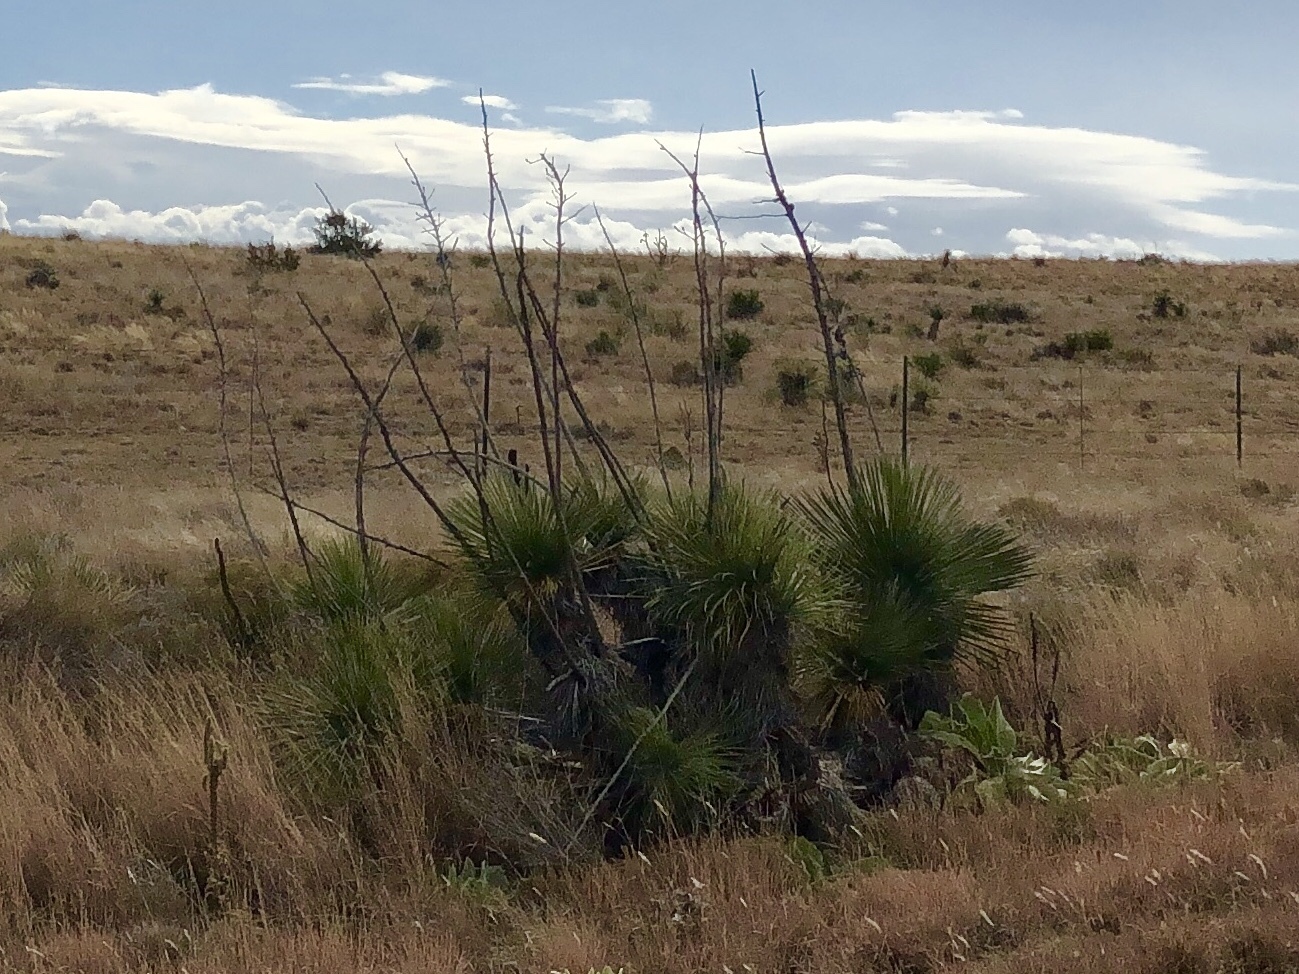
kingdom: Plantae
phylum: Tracheophyta
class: Liliopsida
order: Asparagales
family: Asparagaceae
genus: Yucca
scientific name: Yucca elata
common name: Palmella
